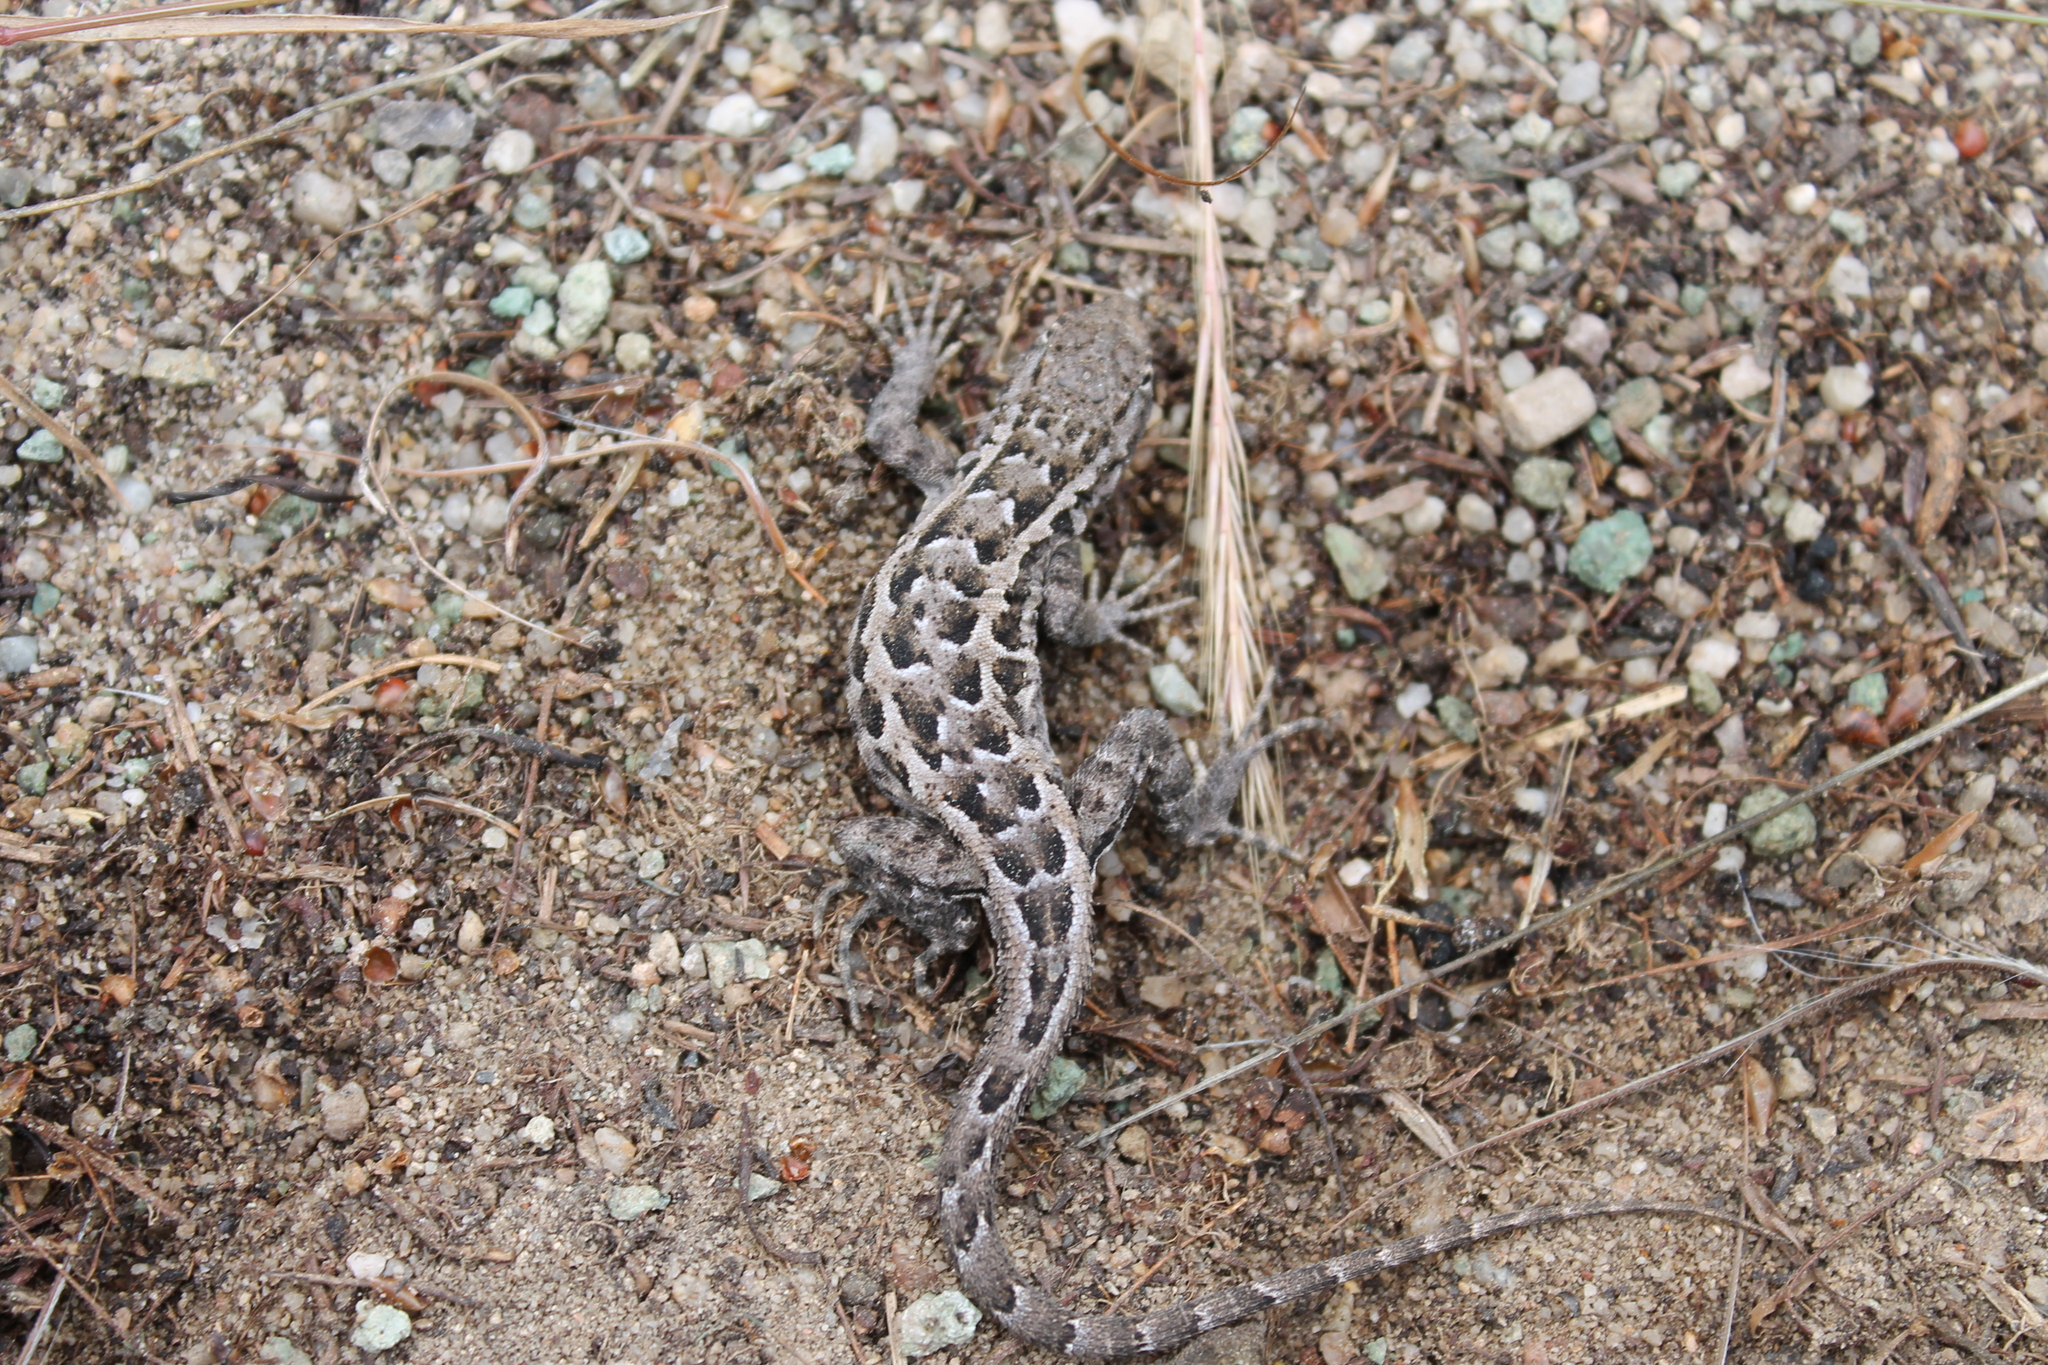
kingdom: Animalia
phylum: Chordata
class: Squamata
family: Phrynosomatidae
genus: Uta
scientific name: Uta stansburiana
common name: Side-blotched lizard
